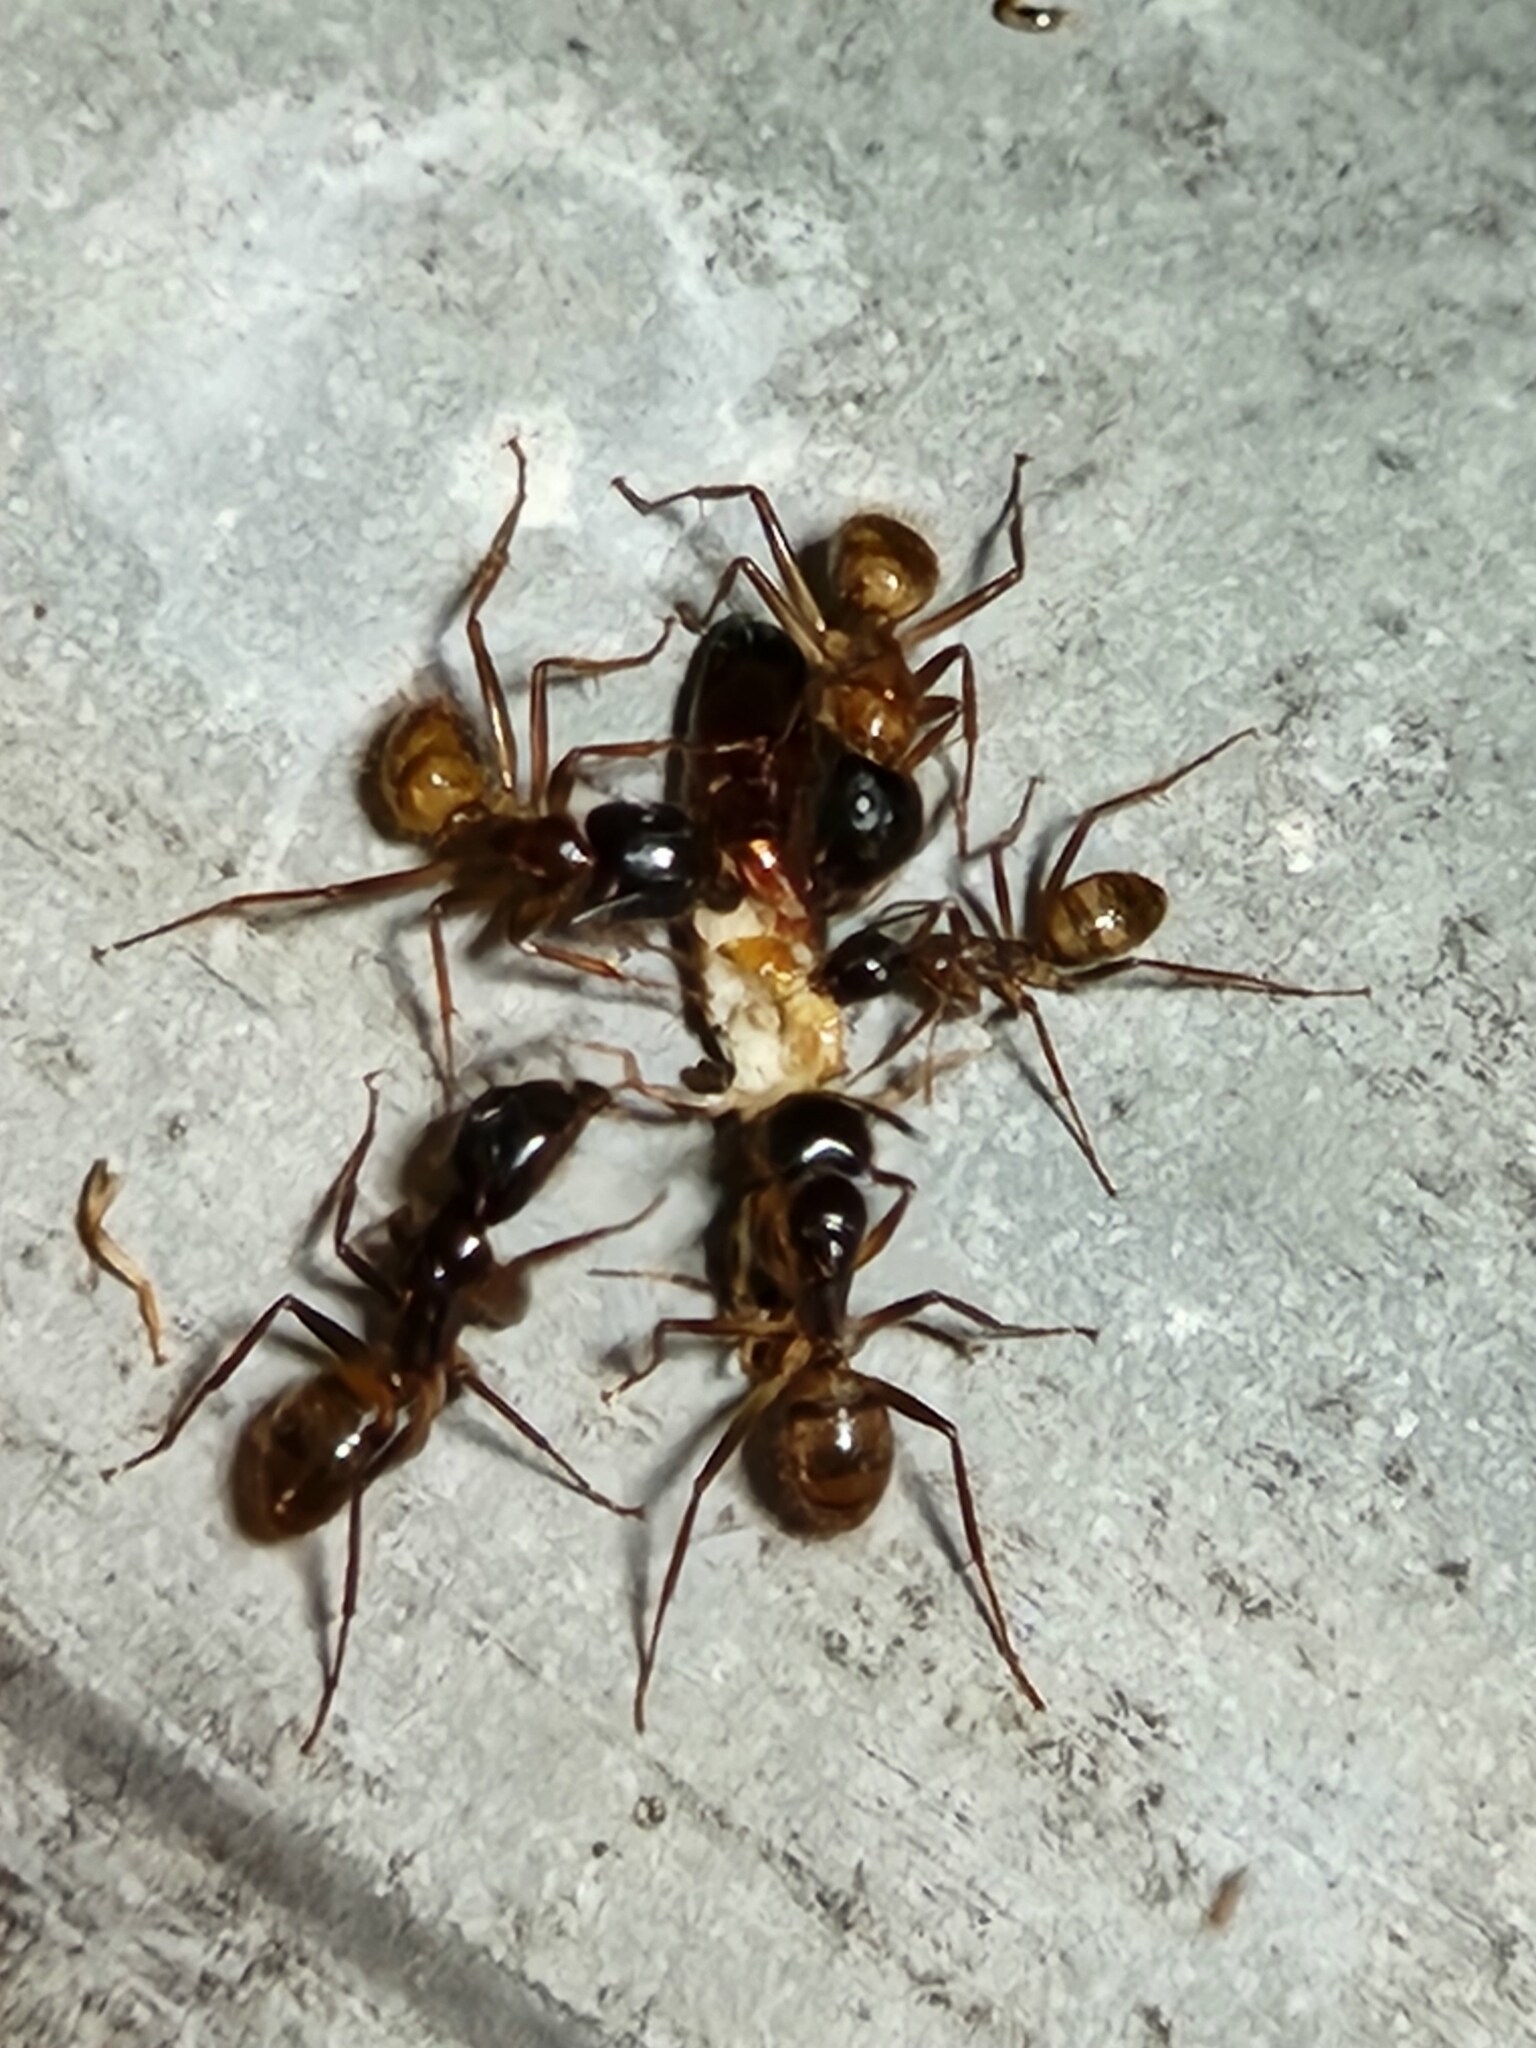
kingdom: Animalia
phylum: Arthropoda
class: Insecta
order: Hymenoptera
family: Formicidae
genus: Camponotus
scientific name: Camponotus atriceps
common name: Florida carpenter ant
